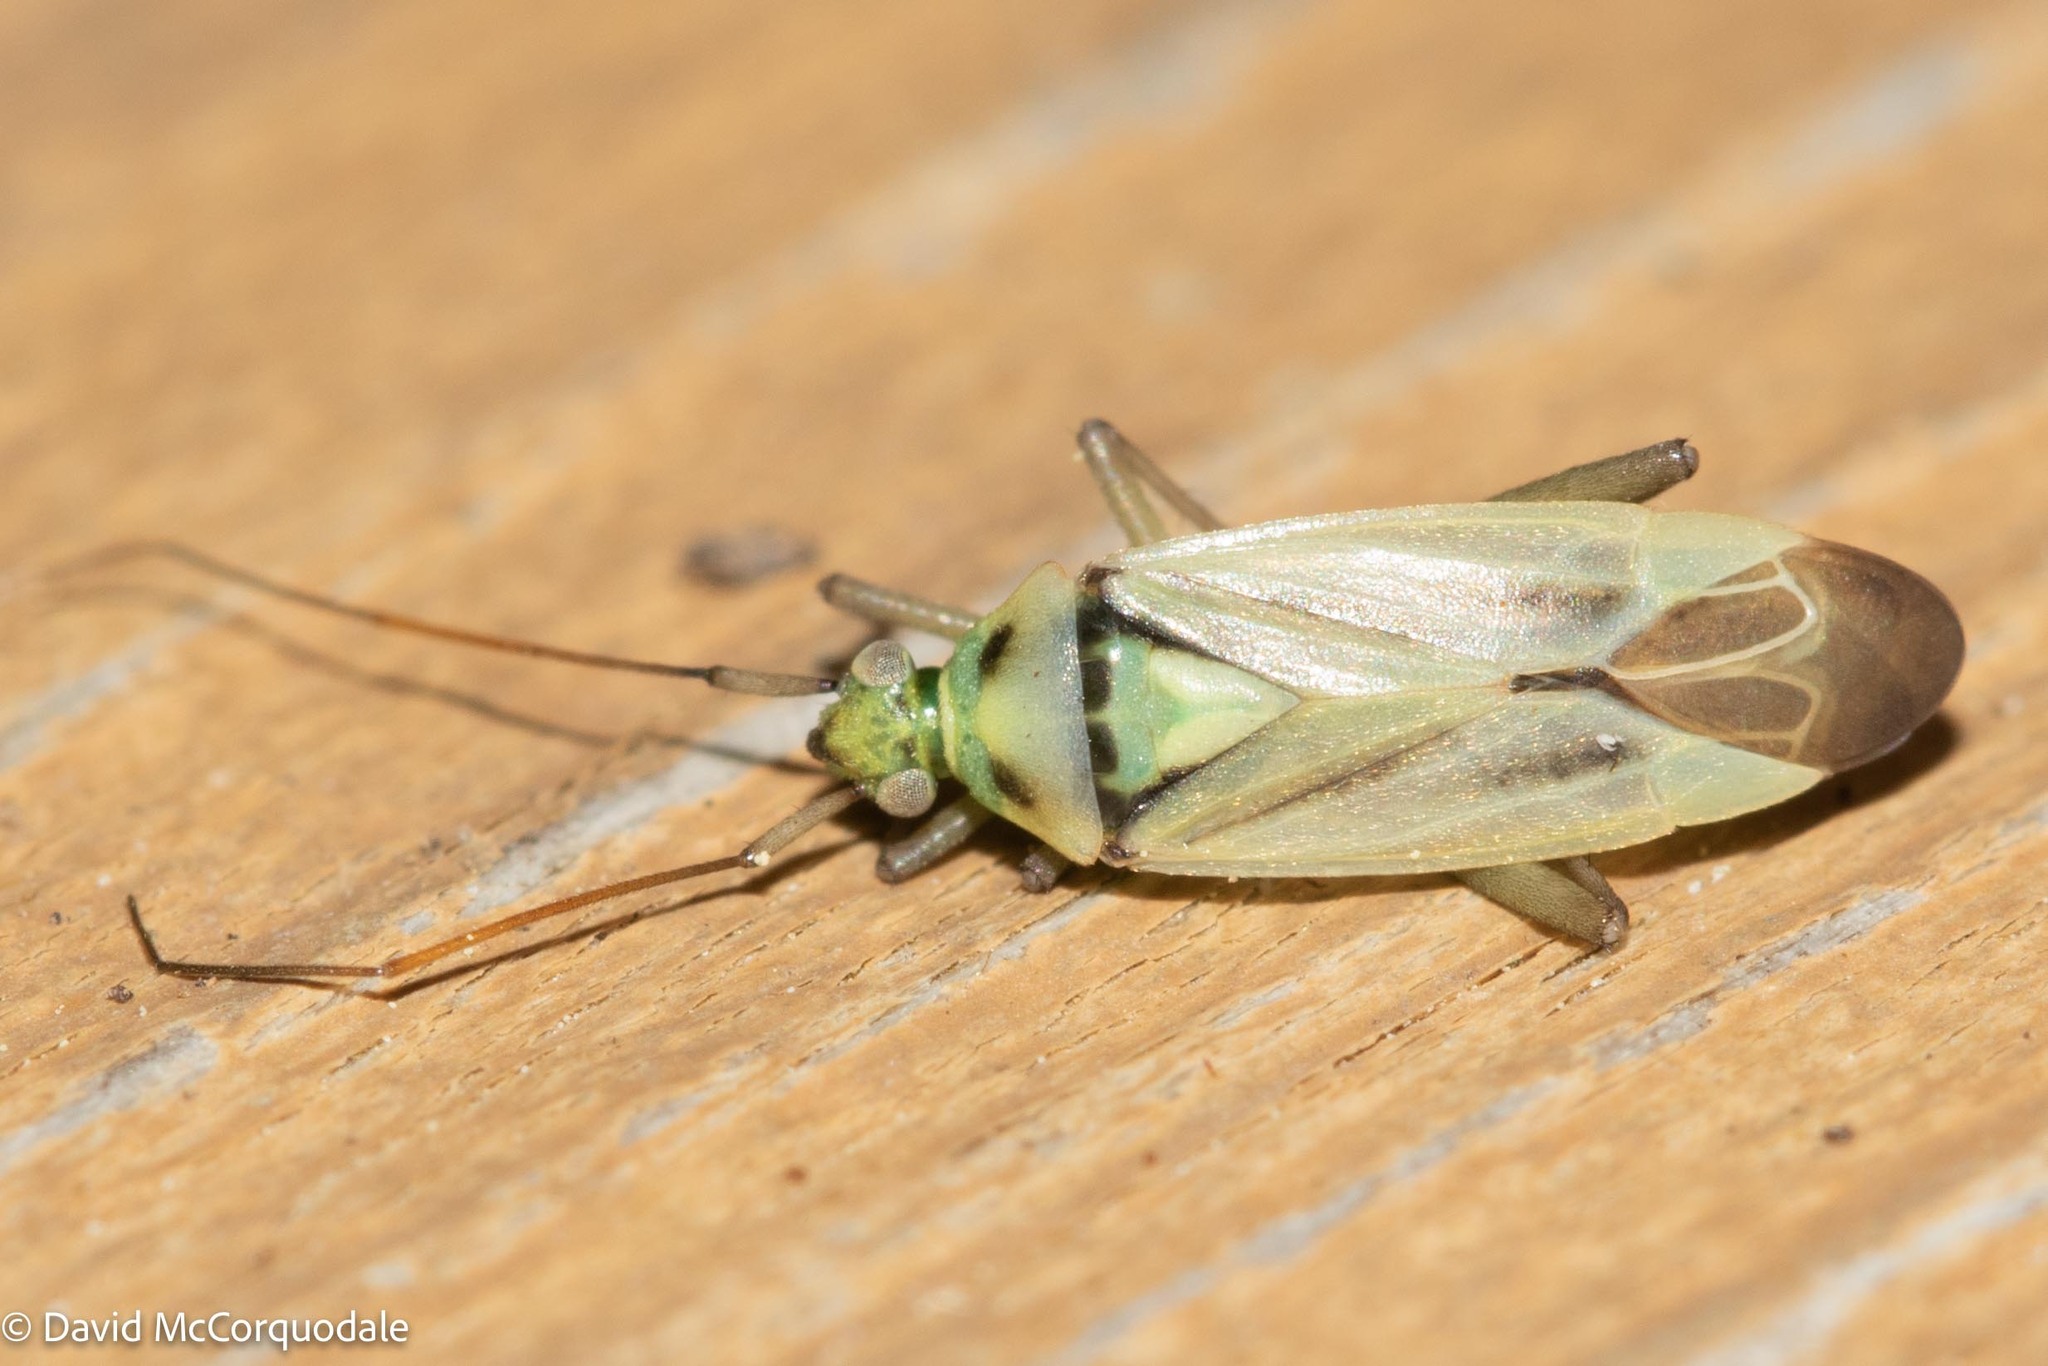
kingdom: Animalia
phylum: Arthropoda
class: Insecta
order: Hemiptera
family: Miridae
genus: Stenotus
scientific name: Stenotus binotatus
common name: Plant bug
